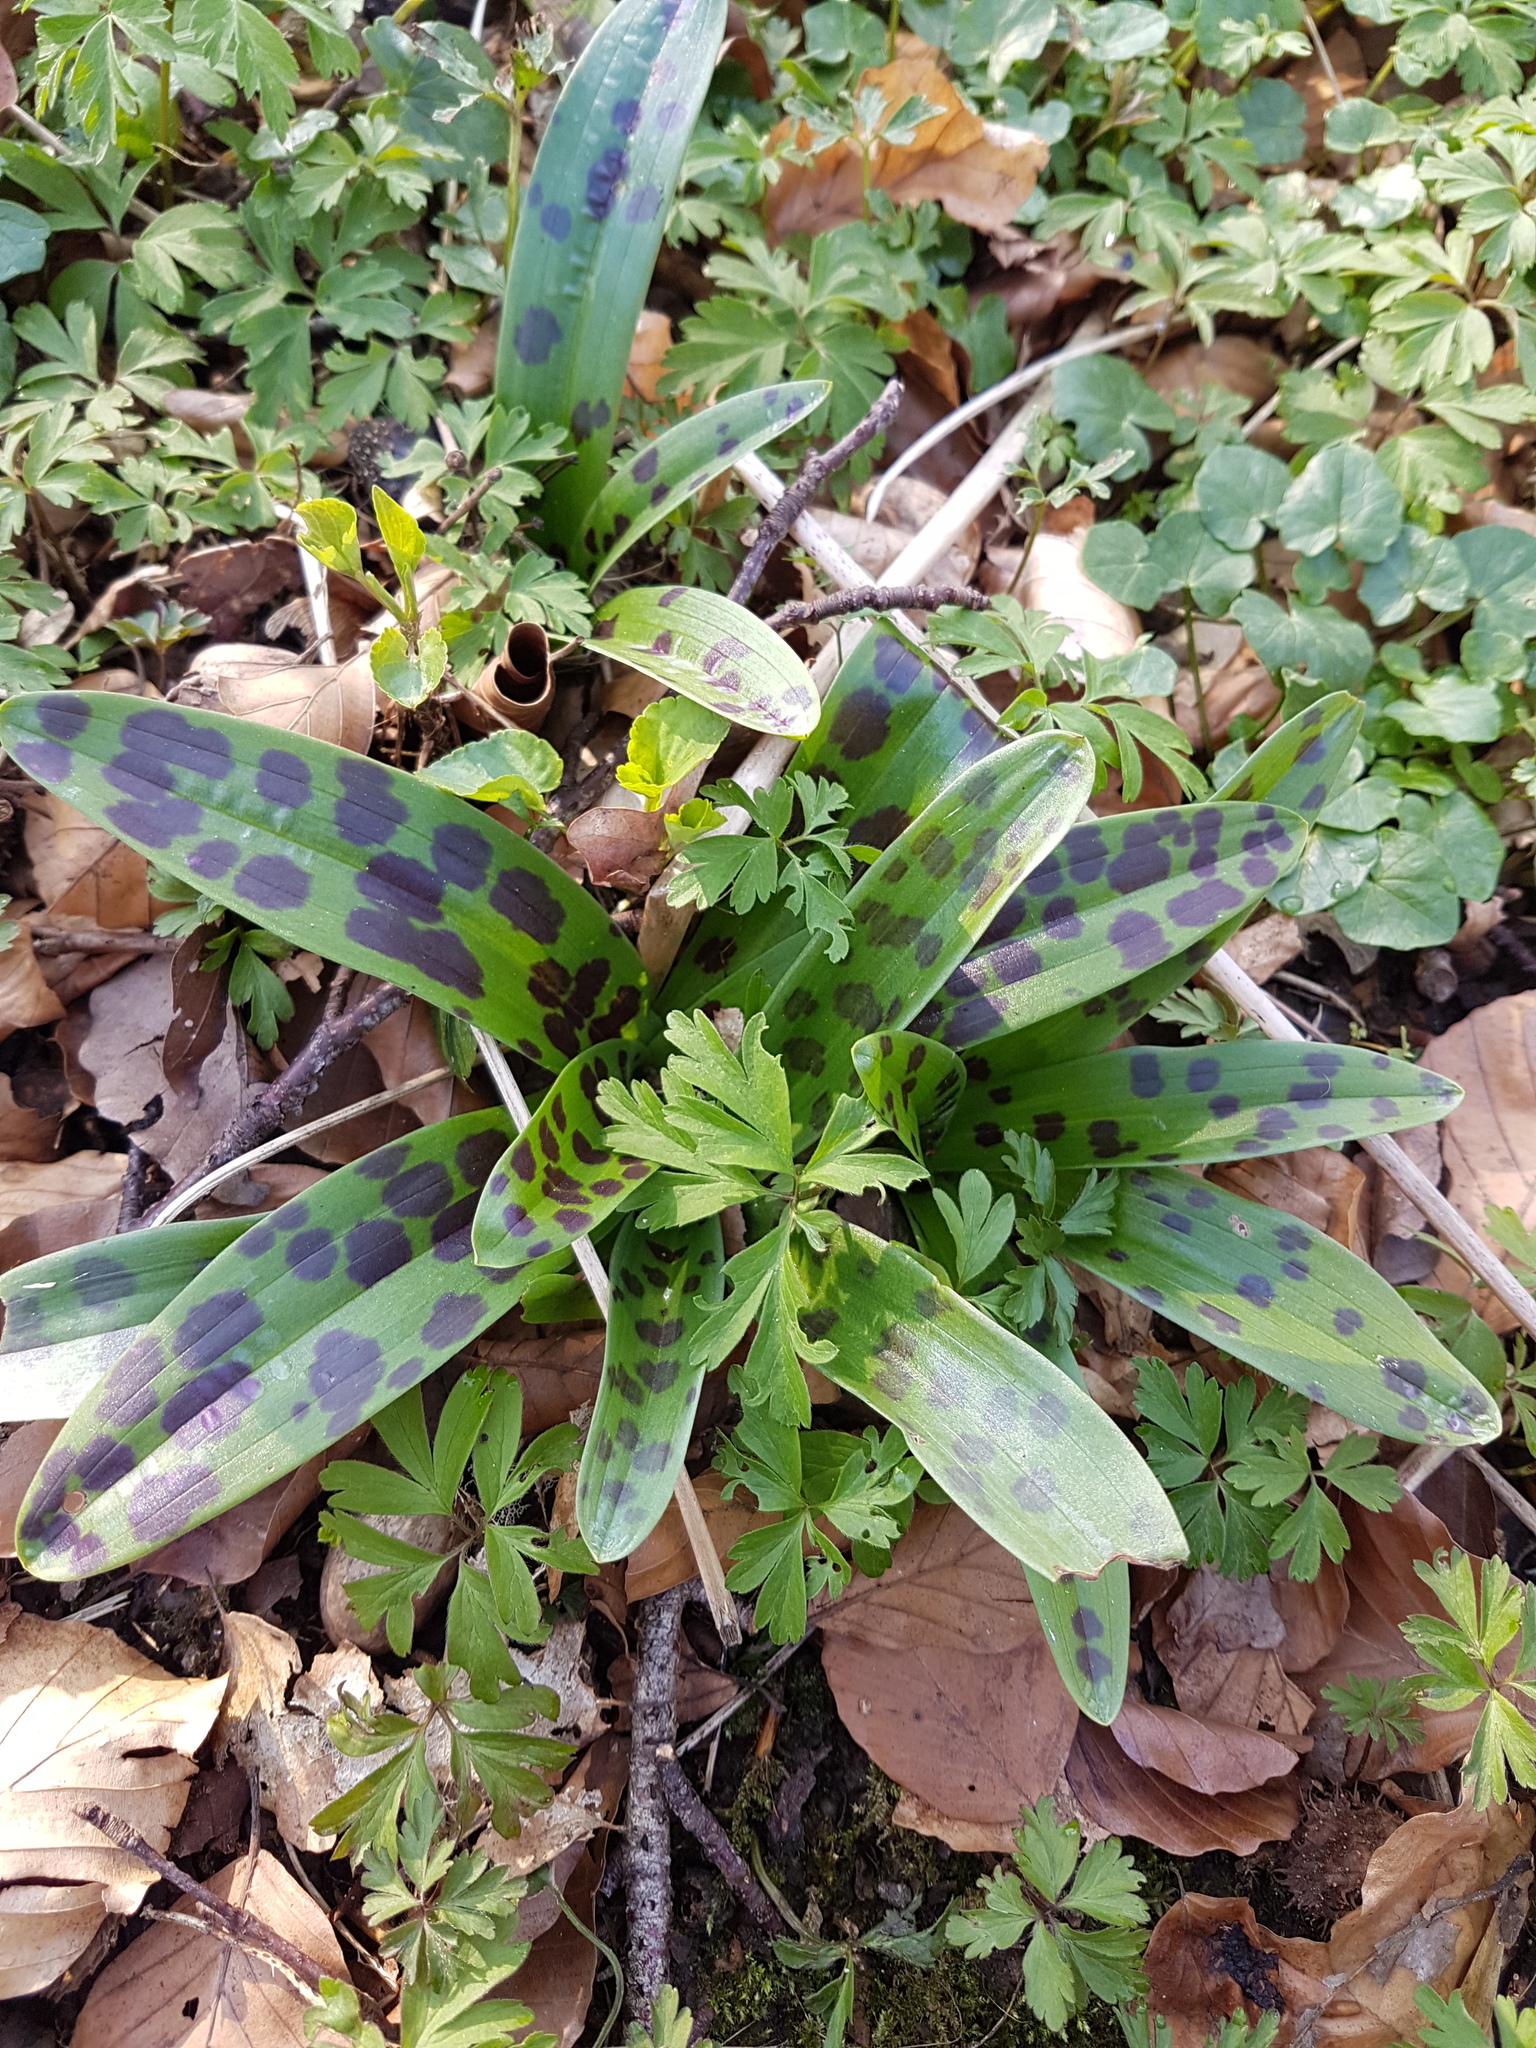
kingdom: Plantae
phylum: Tracheophyta
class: Liliopsida
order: Asparagales
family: Orchidaceae
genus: Orchis
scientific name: Orchis mascula
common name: Early-purple orchid
